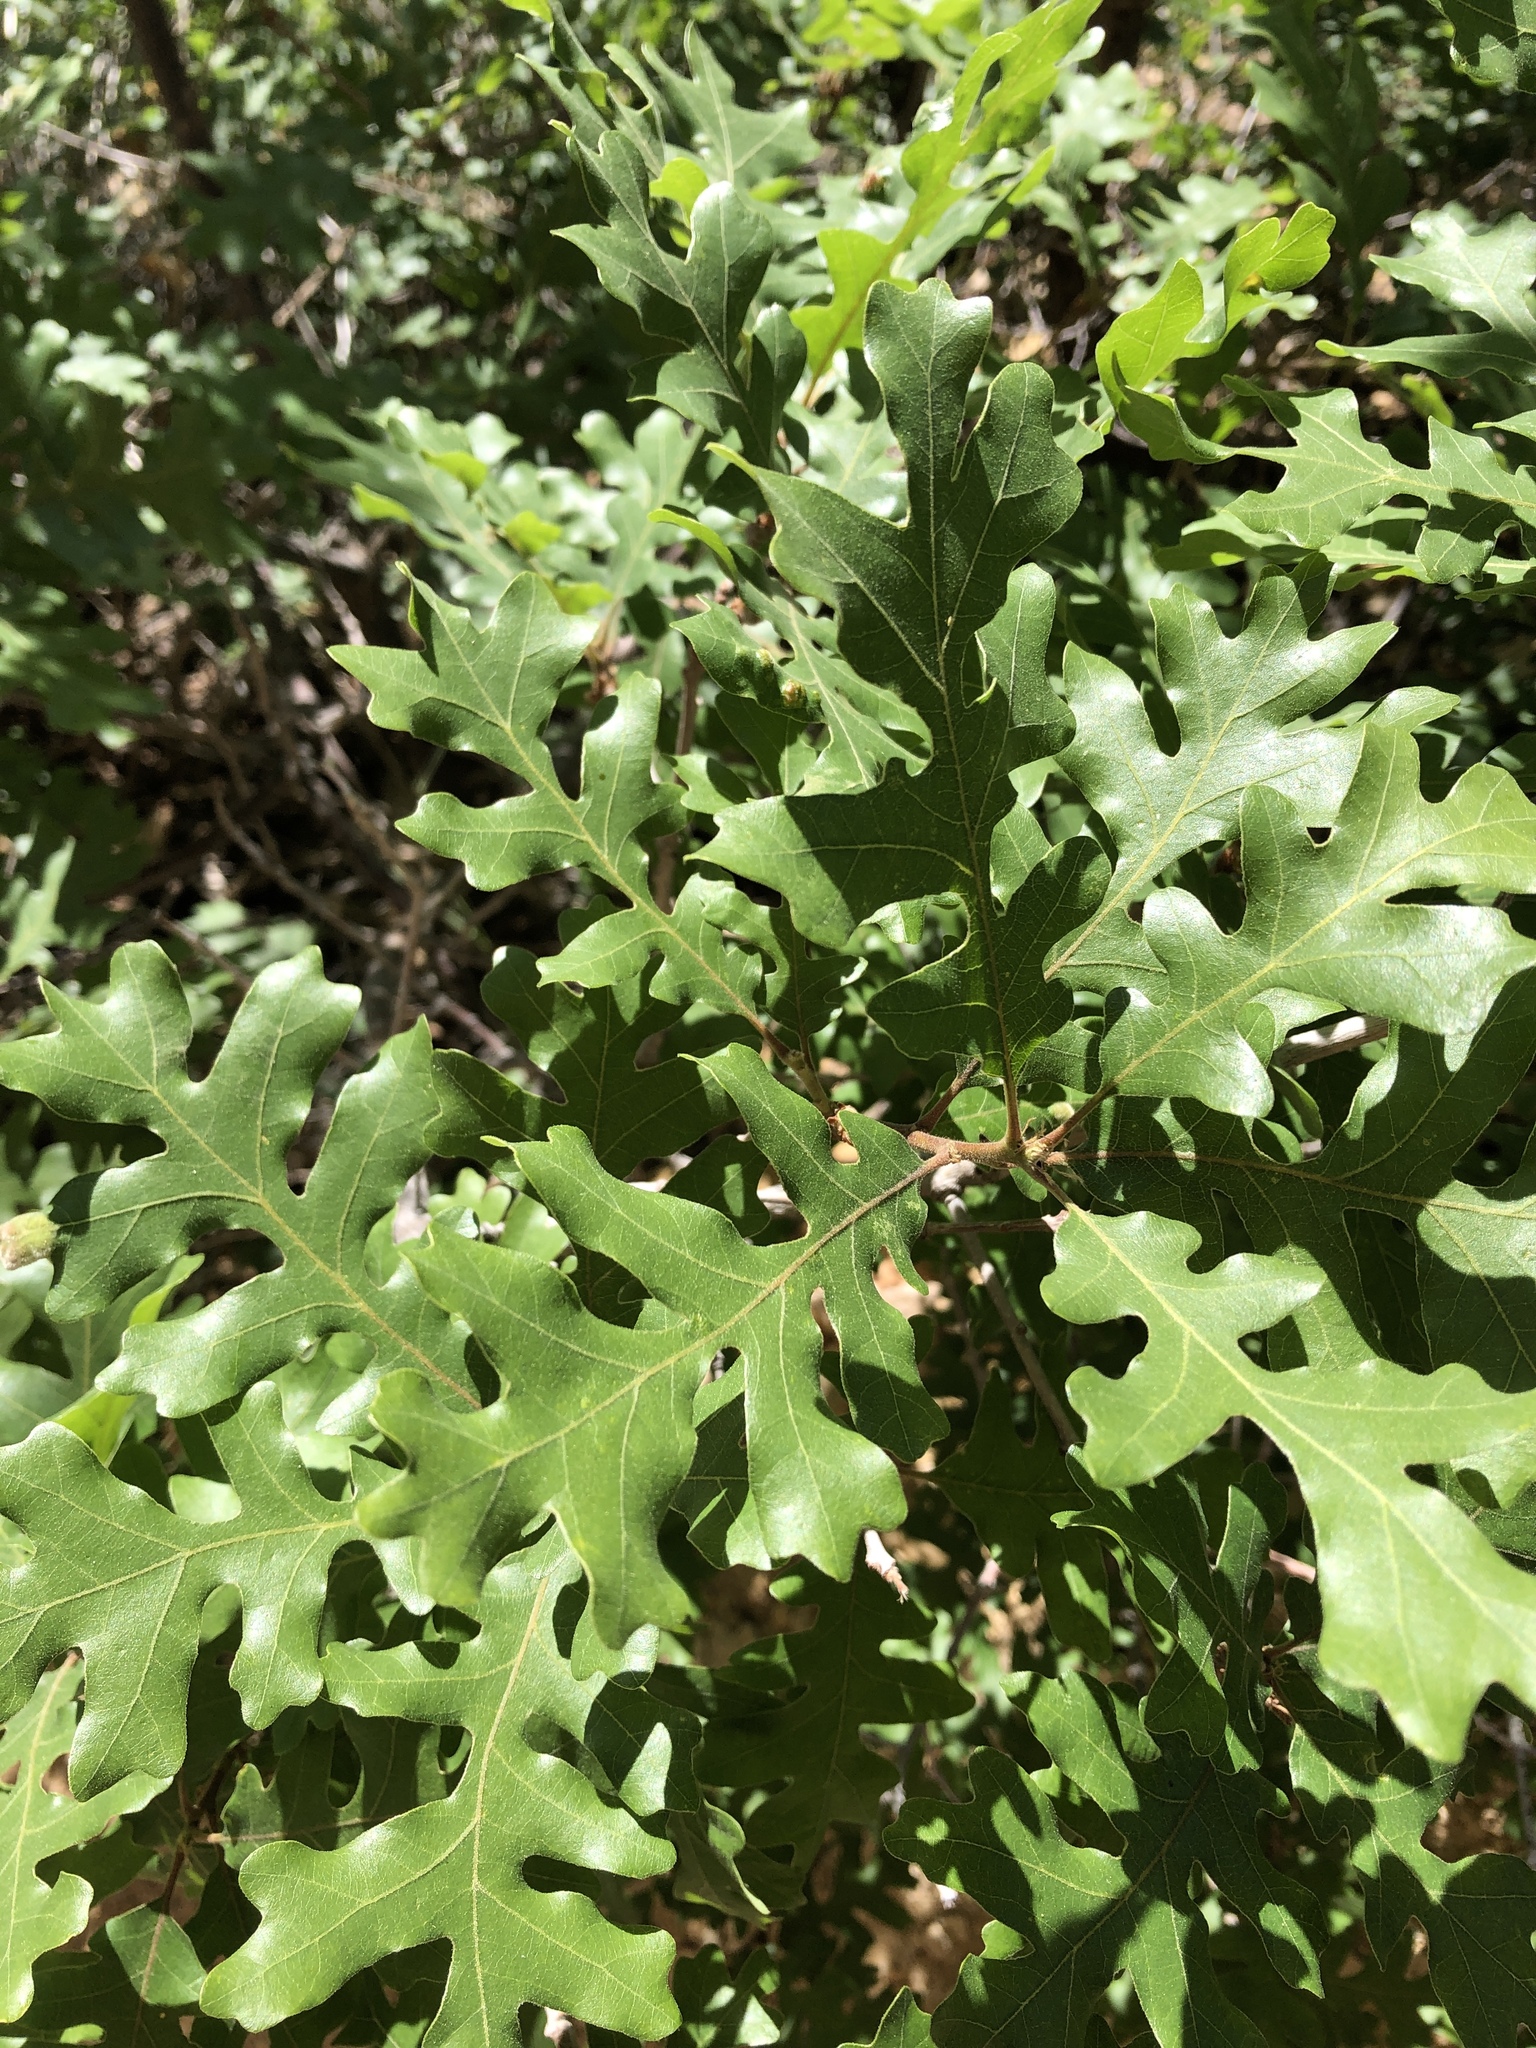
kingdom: Plantae
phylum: Tracheophyta
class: Magnoliopsida
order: Fagales
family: Fagaceae
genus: Quercus
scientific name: Quercus gambelii
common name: Gambel oak
